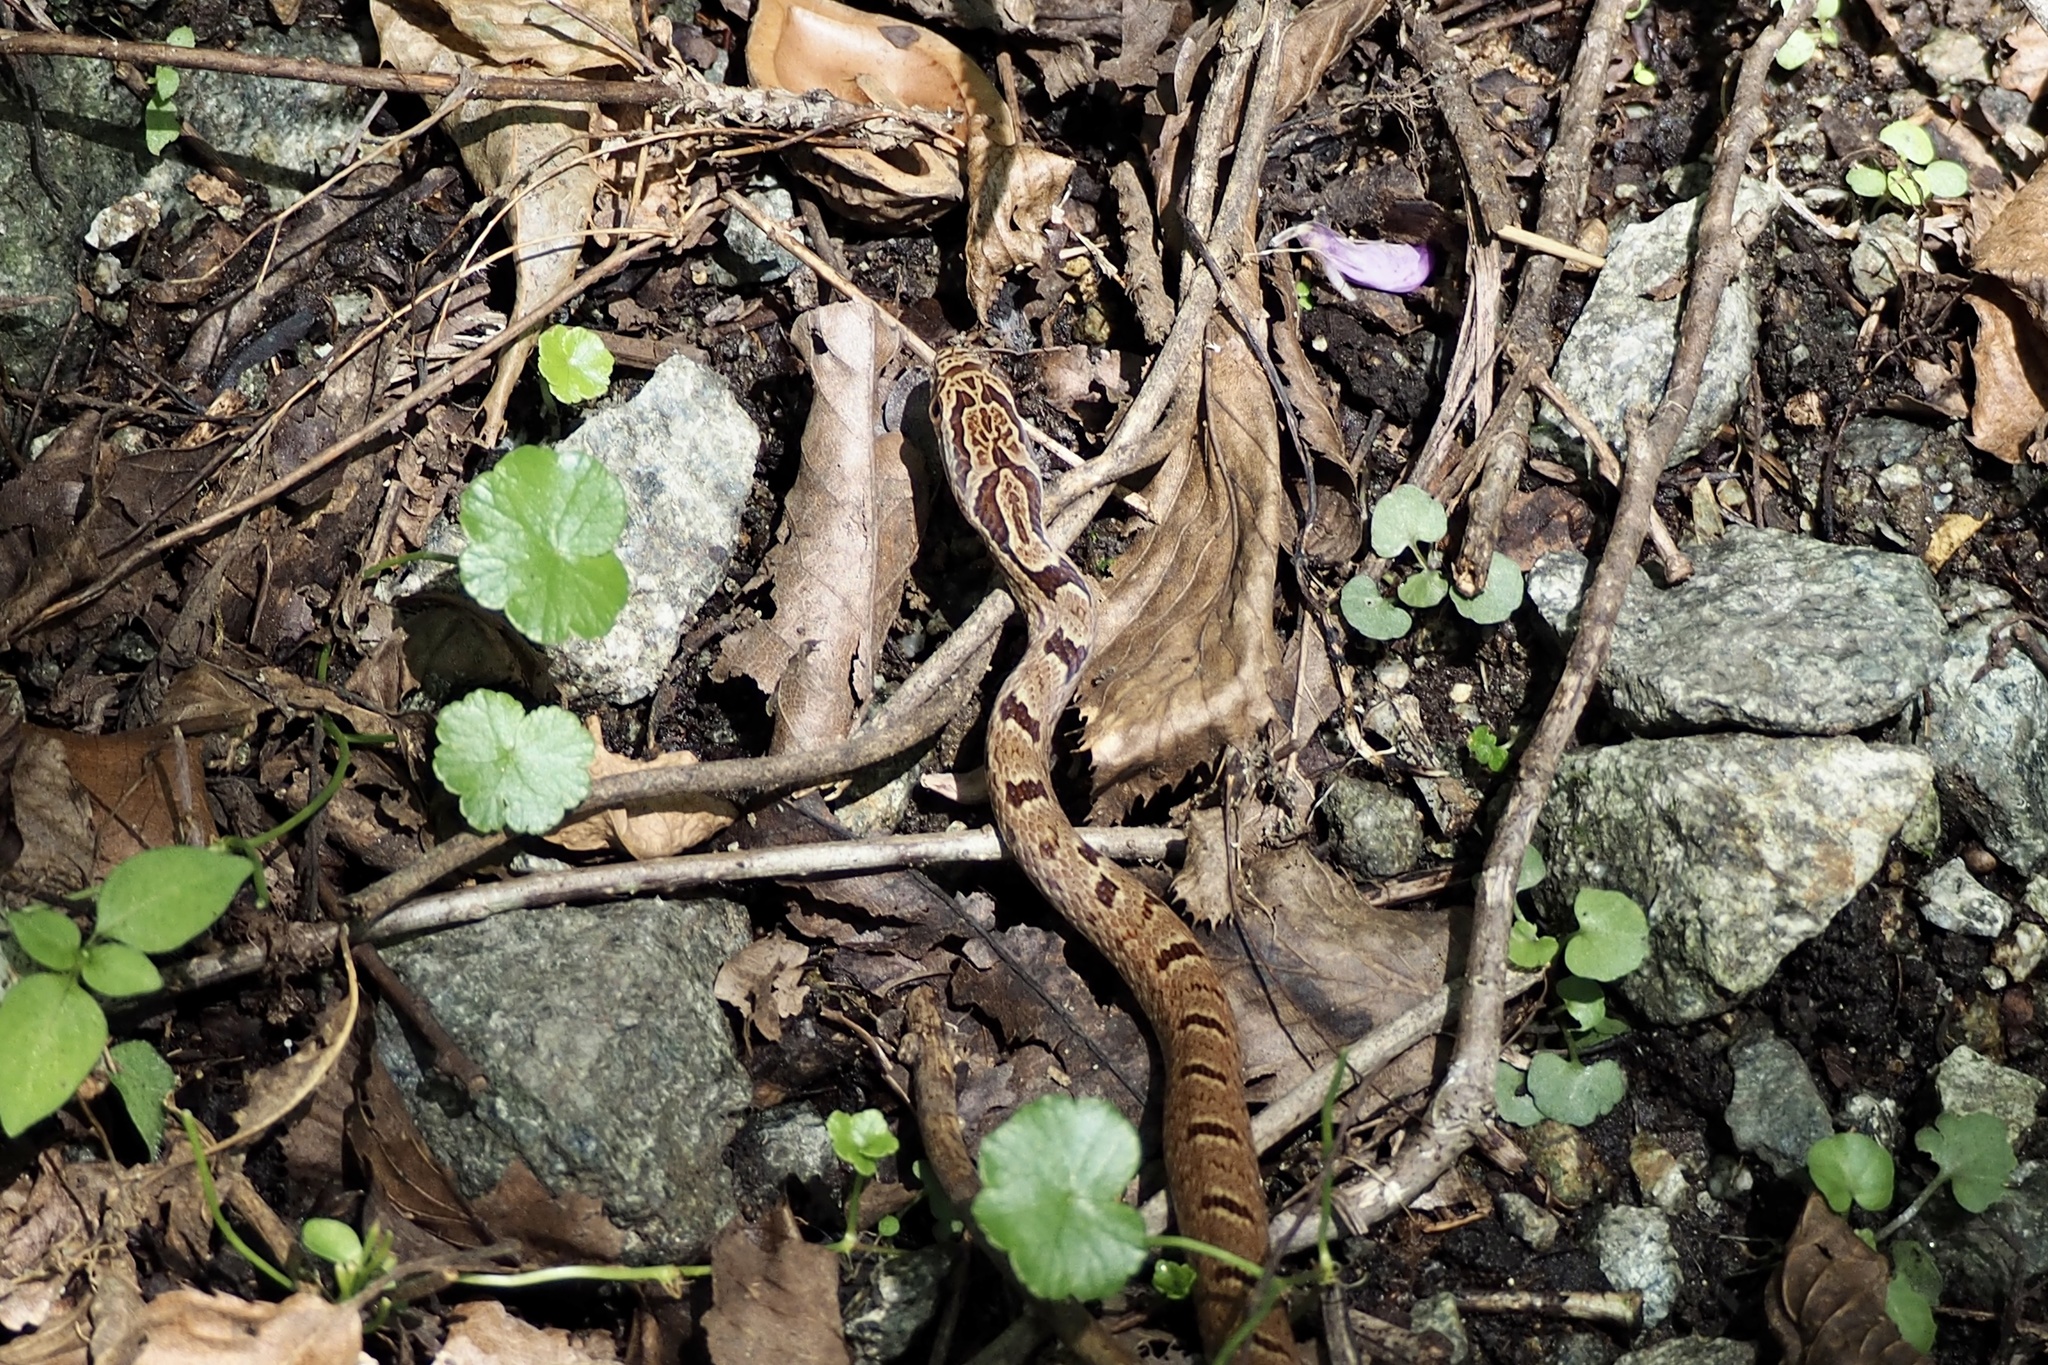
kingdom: Animalia
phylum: Chordata
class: Squamata
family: Colubridae
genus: Elaphe
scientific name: Elaphe quadrivirgata
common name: Japanese four-lined ratsnake
